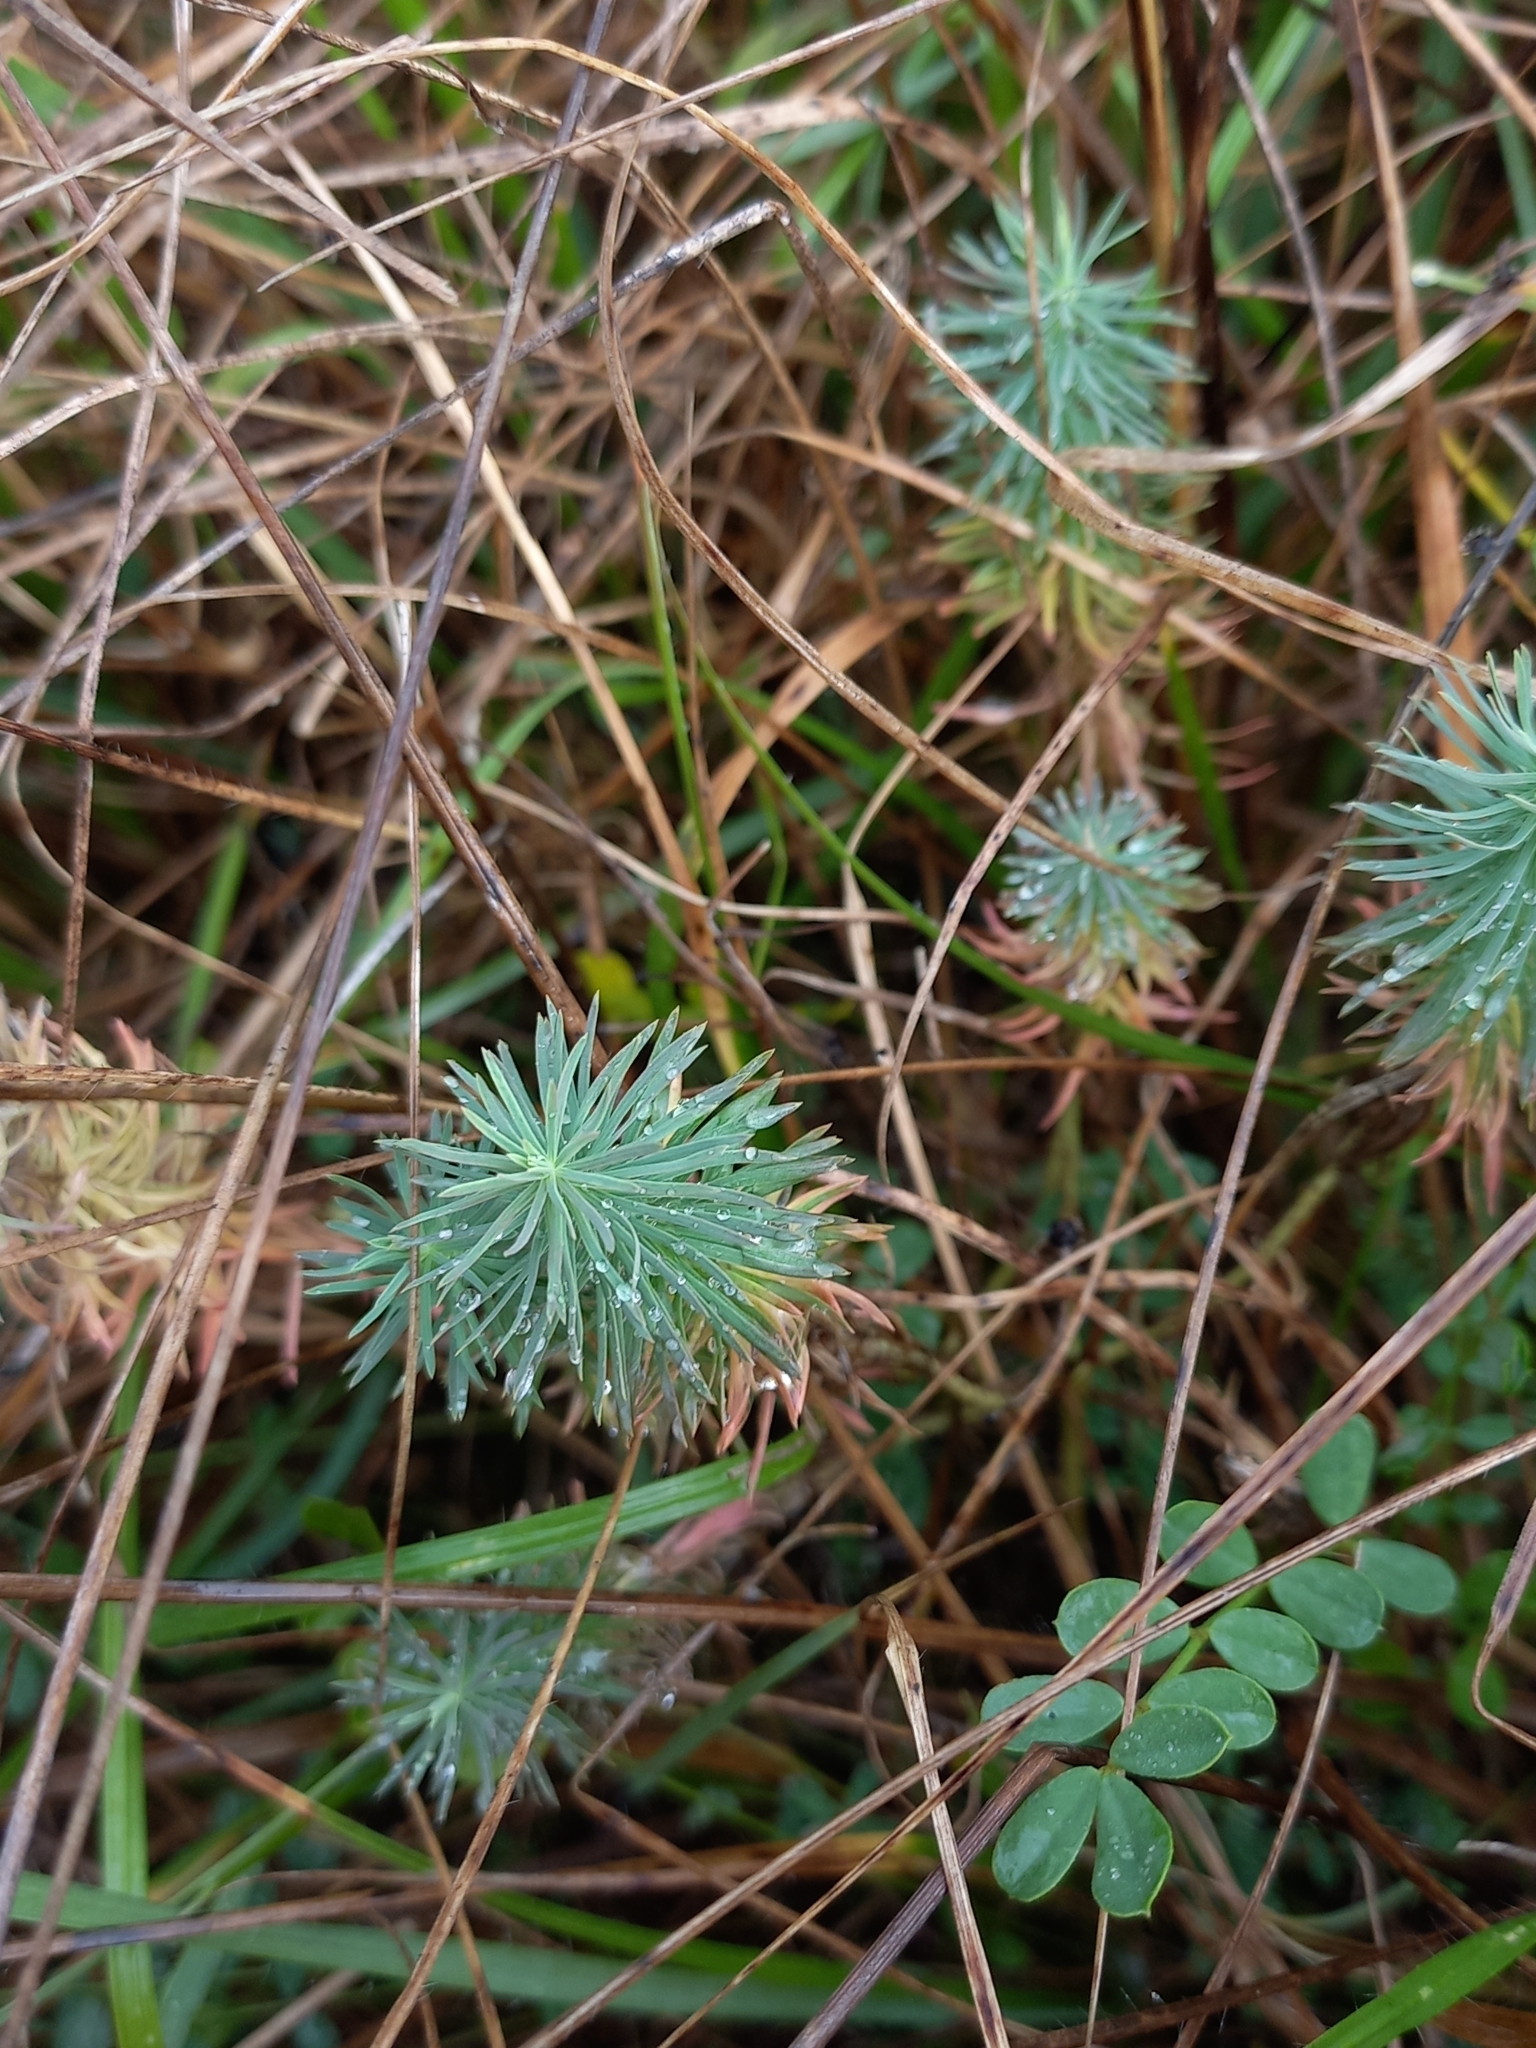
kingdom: Plantae
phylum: Tracheophyta
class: Magnoliopsida
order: Malpighiales
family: Euphorbiaceae
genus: Euphorbia
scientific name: Euphorbia cyparissias
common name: Cypress spurge
